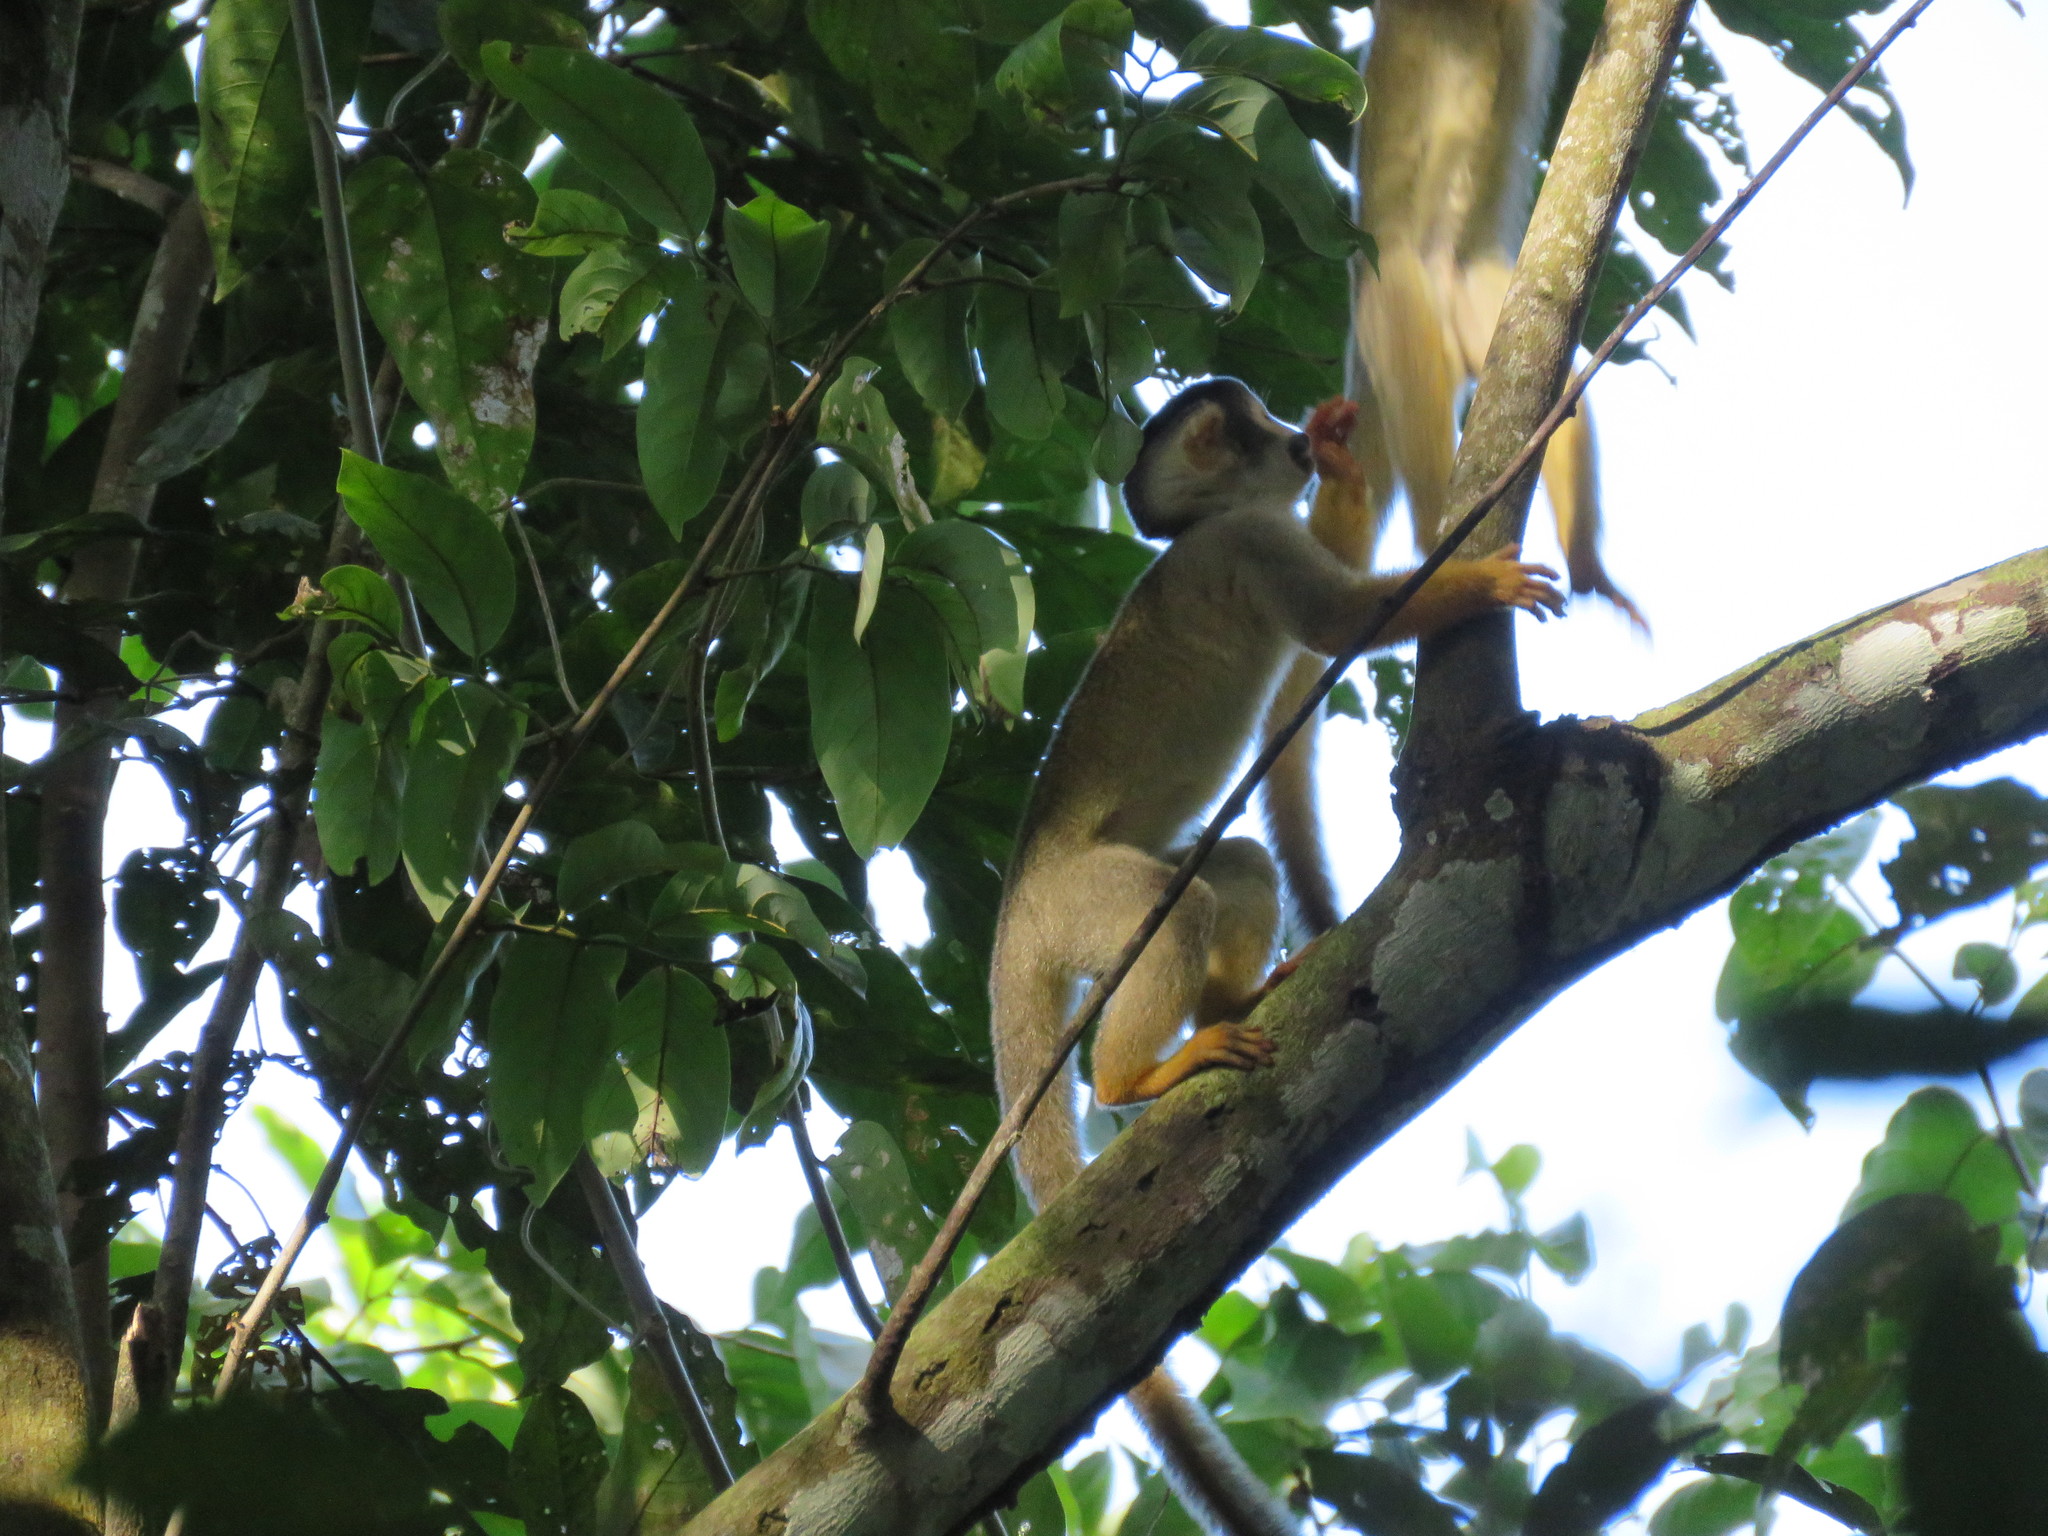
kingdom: Animalia
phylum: Chordata
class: Mammalia
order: Primates
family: Cebidae
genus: Saimiri
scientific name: Saimiri boliviensis
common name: Black-capped squirrel monkey
